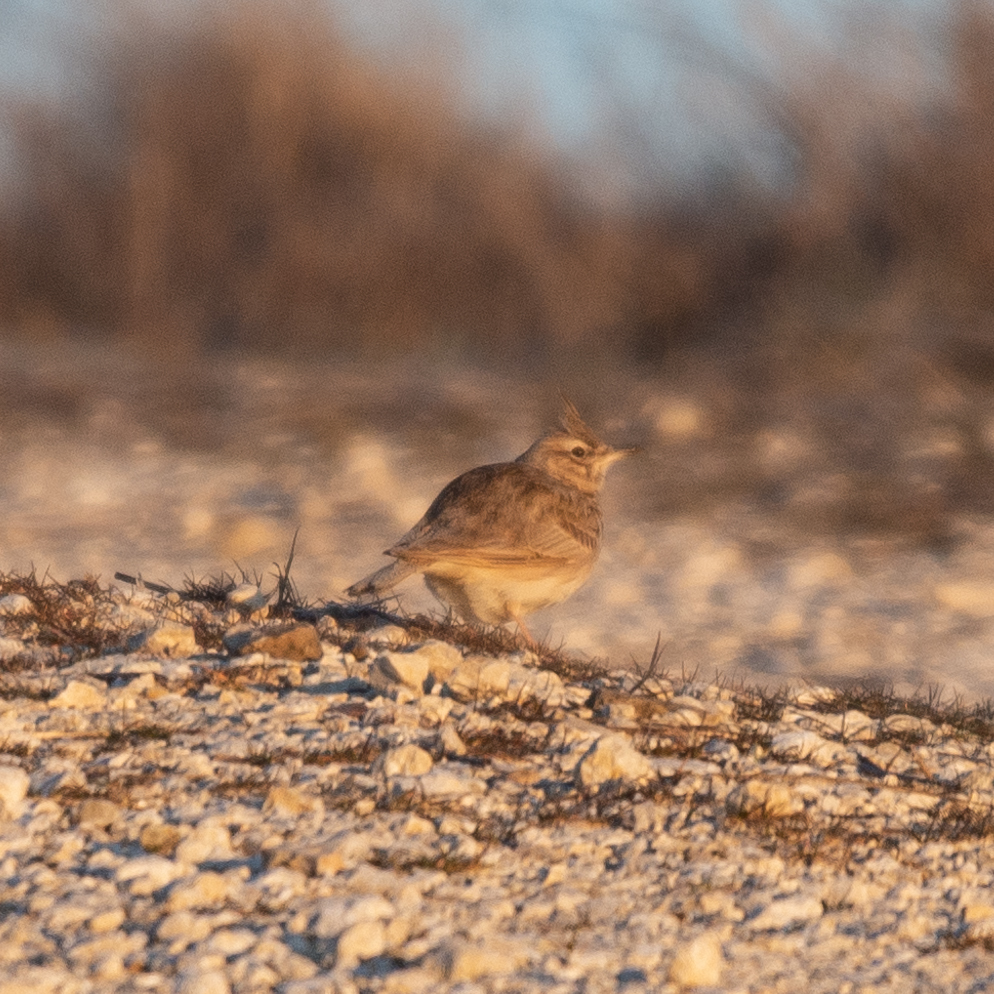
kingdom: Animalia
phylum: Chordata
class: Aves
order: Passeriformes
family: Alaudidae
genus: Galerida
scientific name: Galerida cristata
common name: Crested lark
